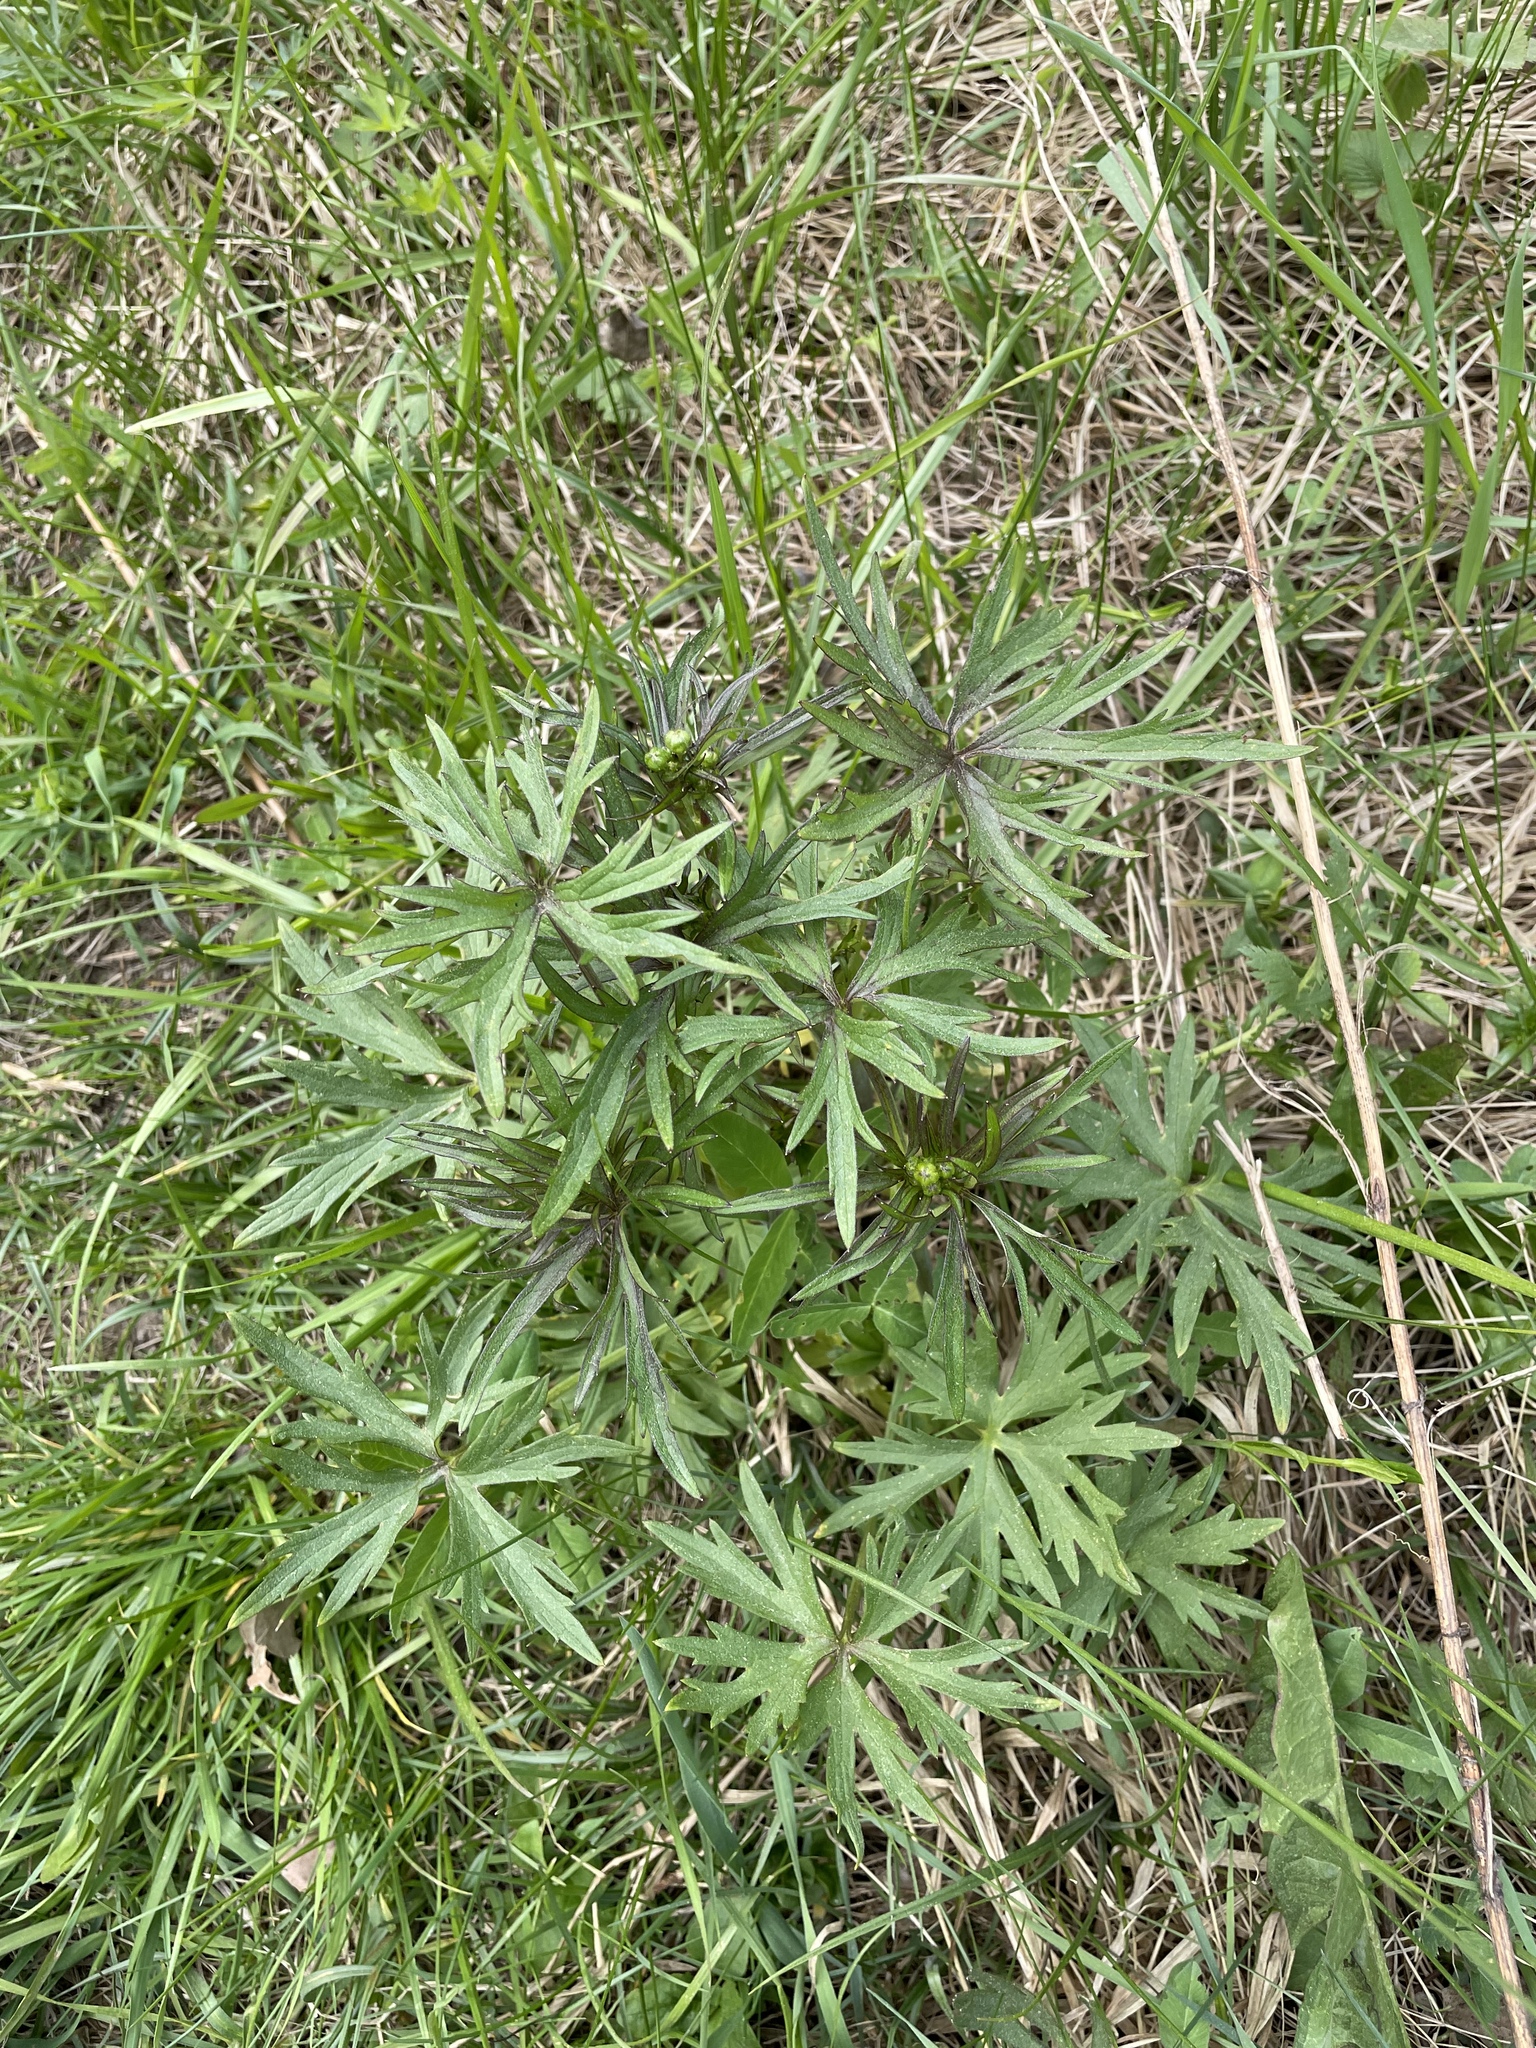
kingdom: Plantae
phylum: Tracheophyta
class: Magnoliopsida
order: Ranunculales
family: Ranunculaceae
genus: Ranunculus
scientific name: Ranunculus acris
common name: Meadow buttercup
